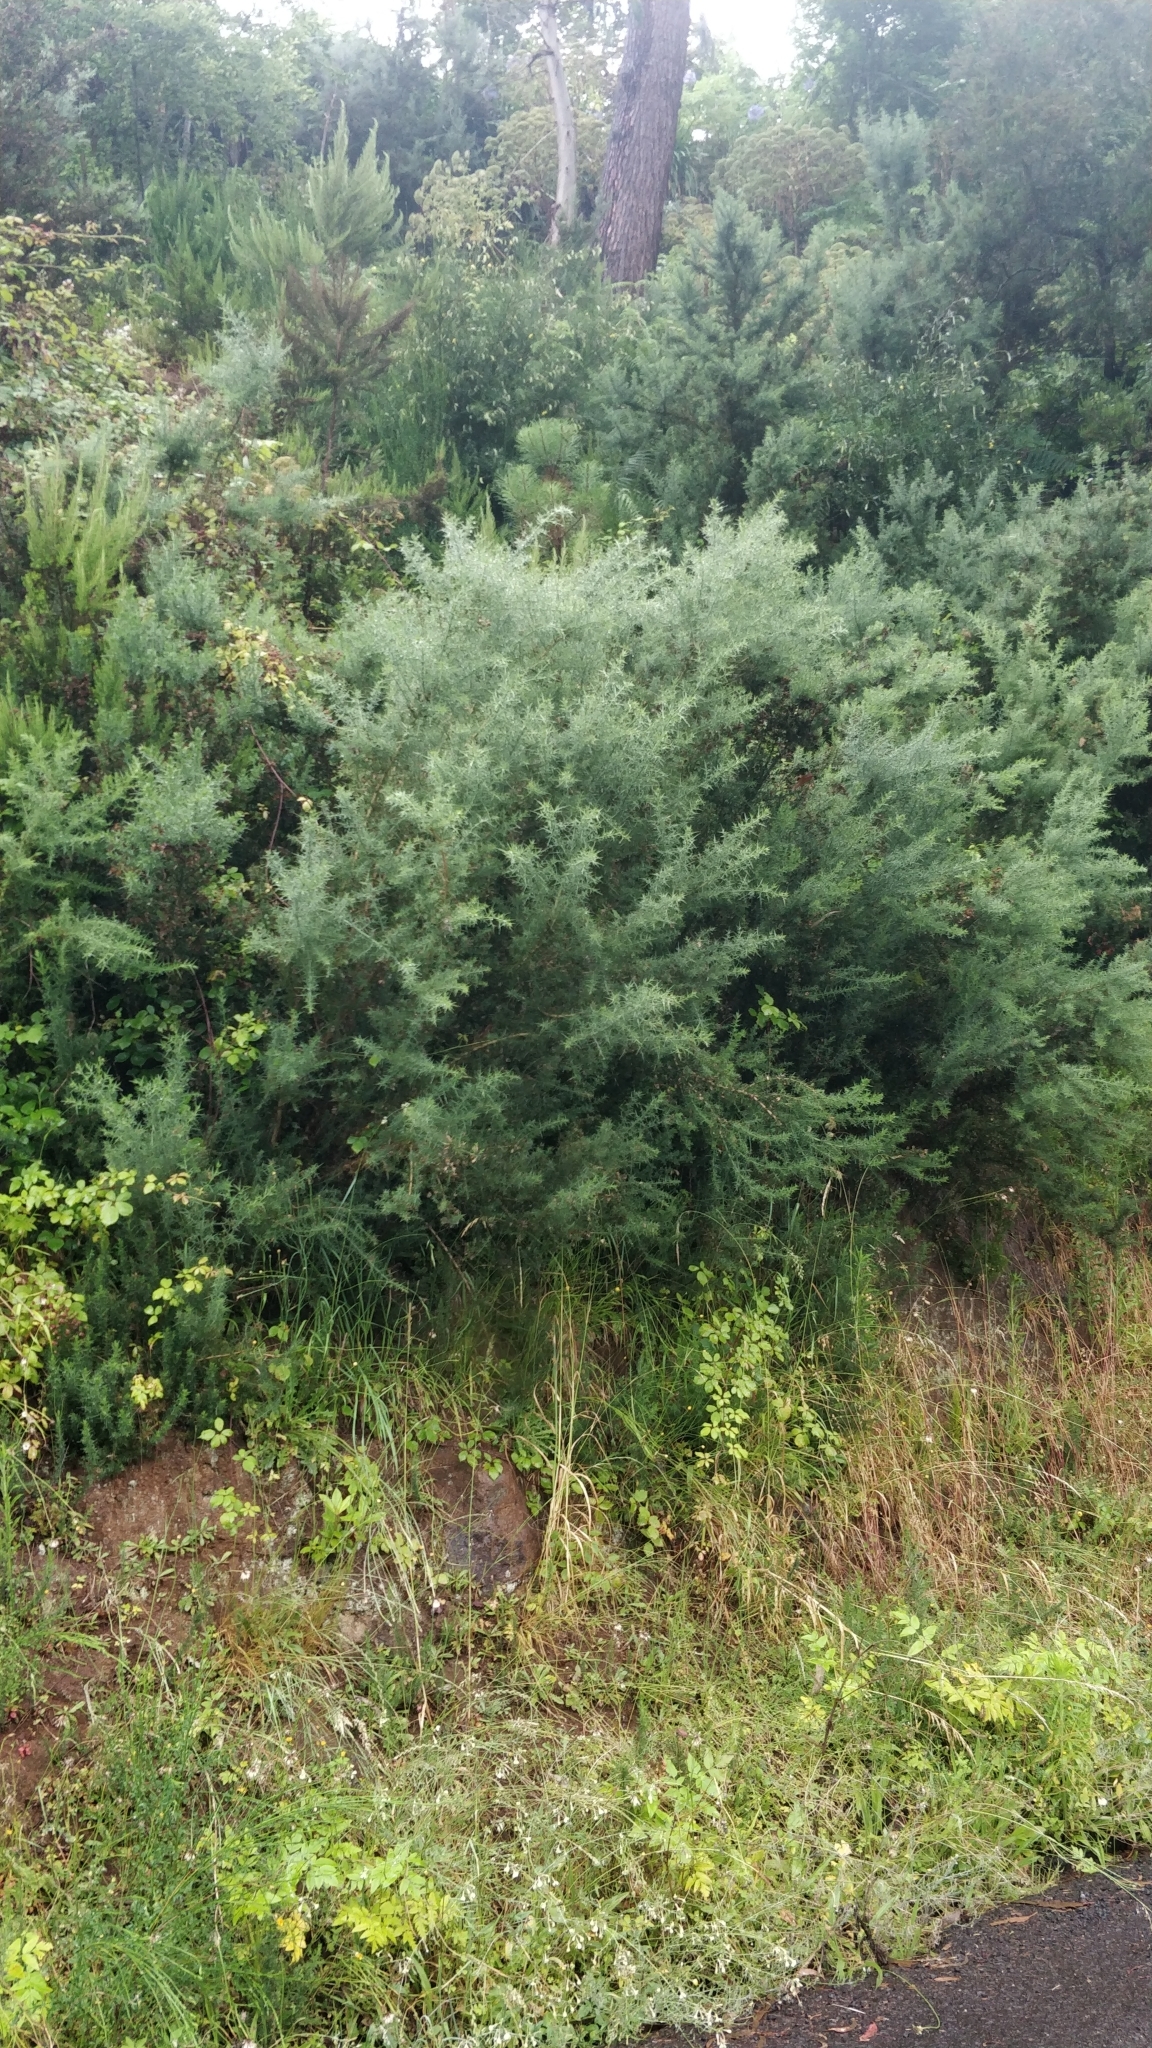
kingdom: Plantae
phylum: Tracheophyta
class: Magnoliopsida
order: Fabales
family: Fabaceae
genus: Ulex
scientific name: Ulex europaeus
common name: Common gorse
